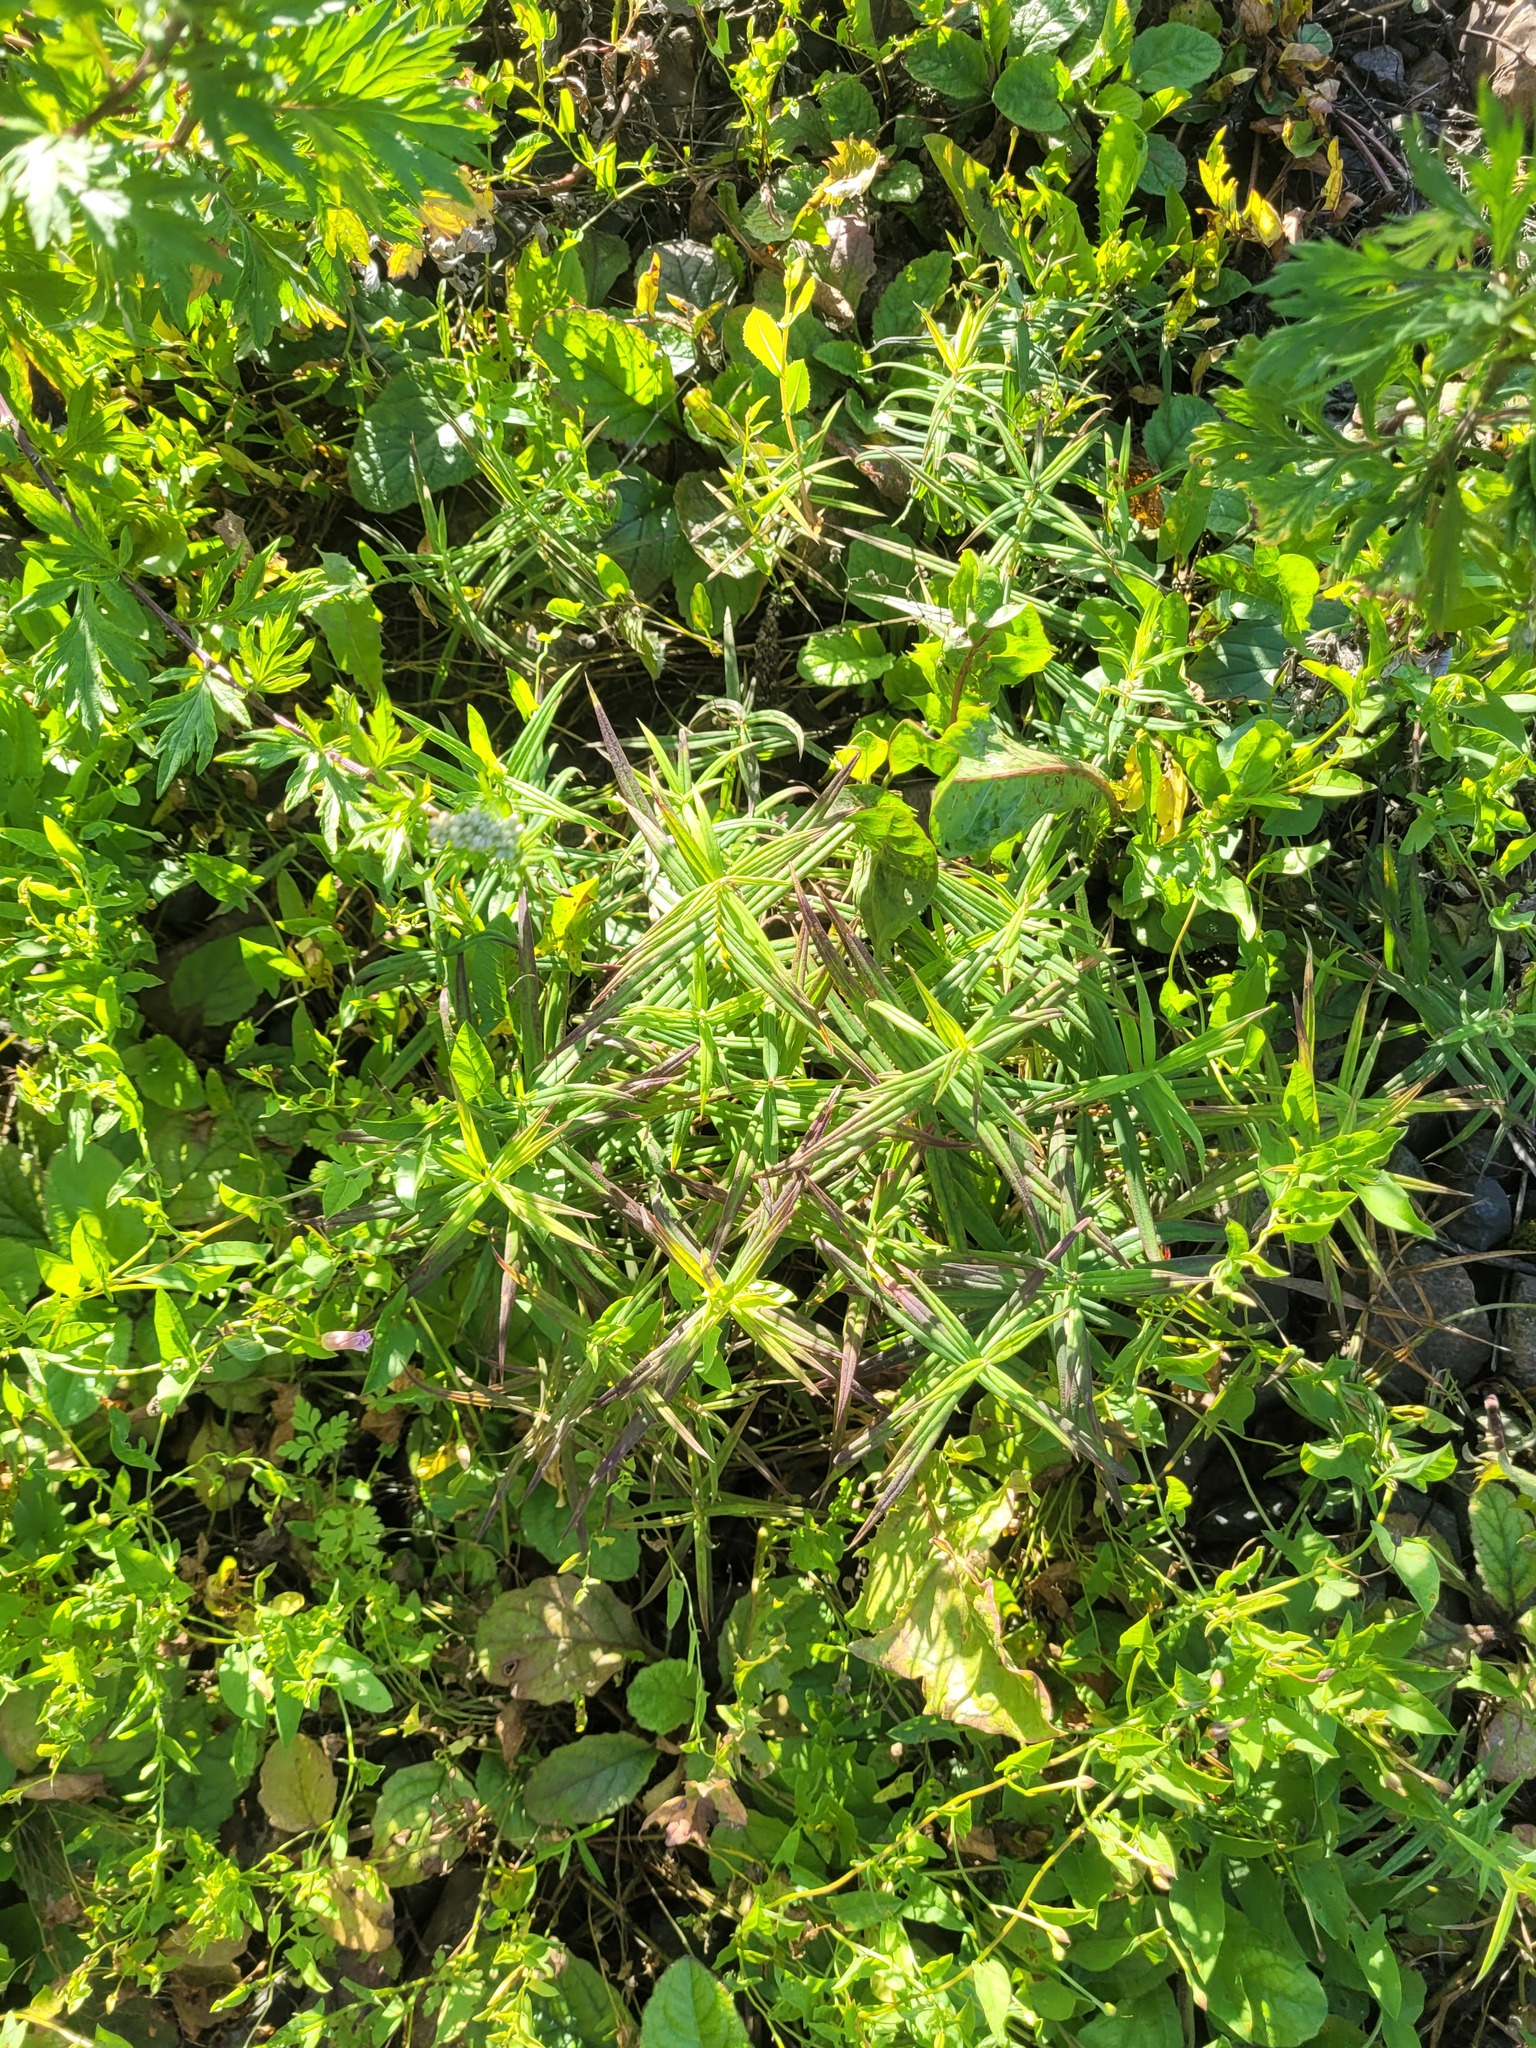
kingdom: Plantae
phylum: Tracheophyta
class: Magnoliopsida
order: Caryophyllales
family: Caryophyllaceae
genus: Rabelera
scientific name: Rabelera holostea
